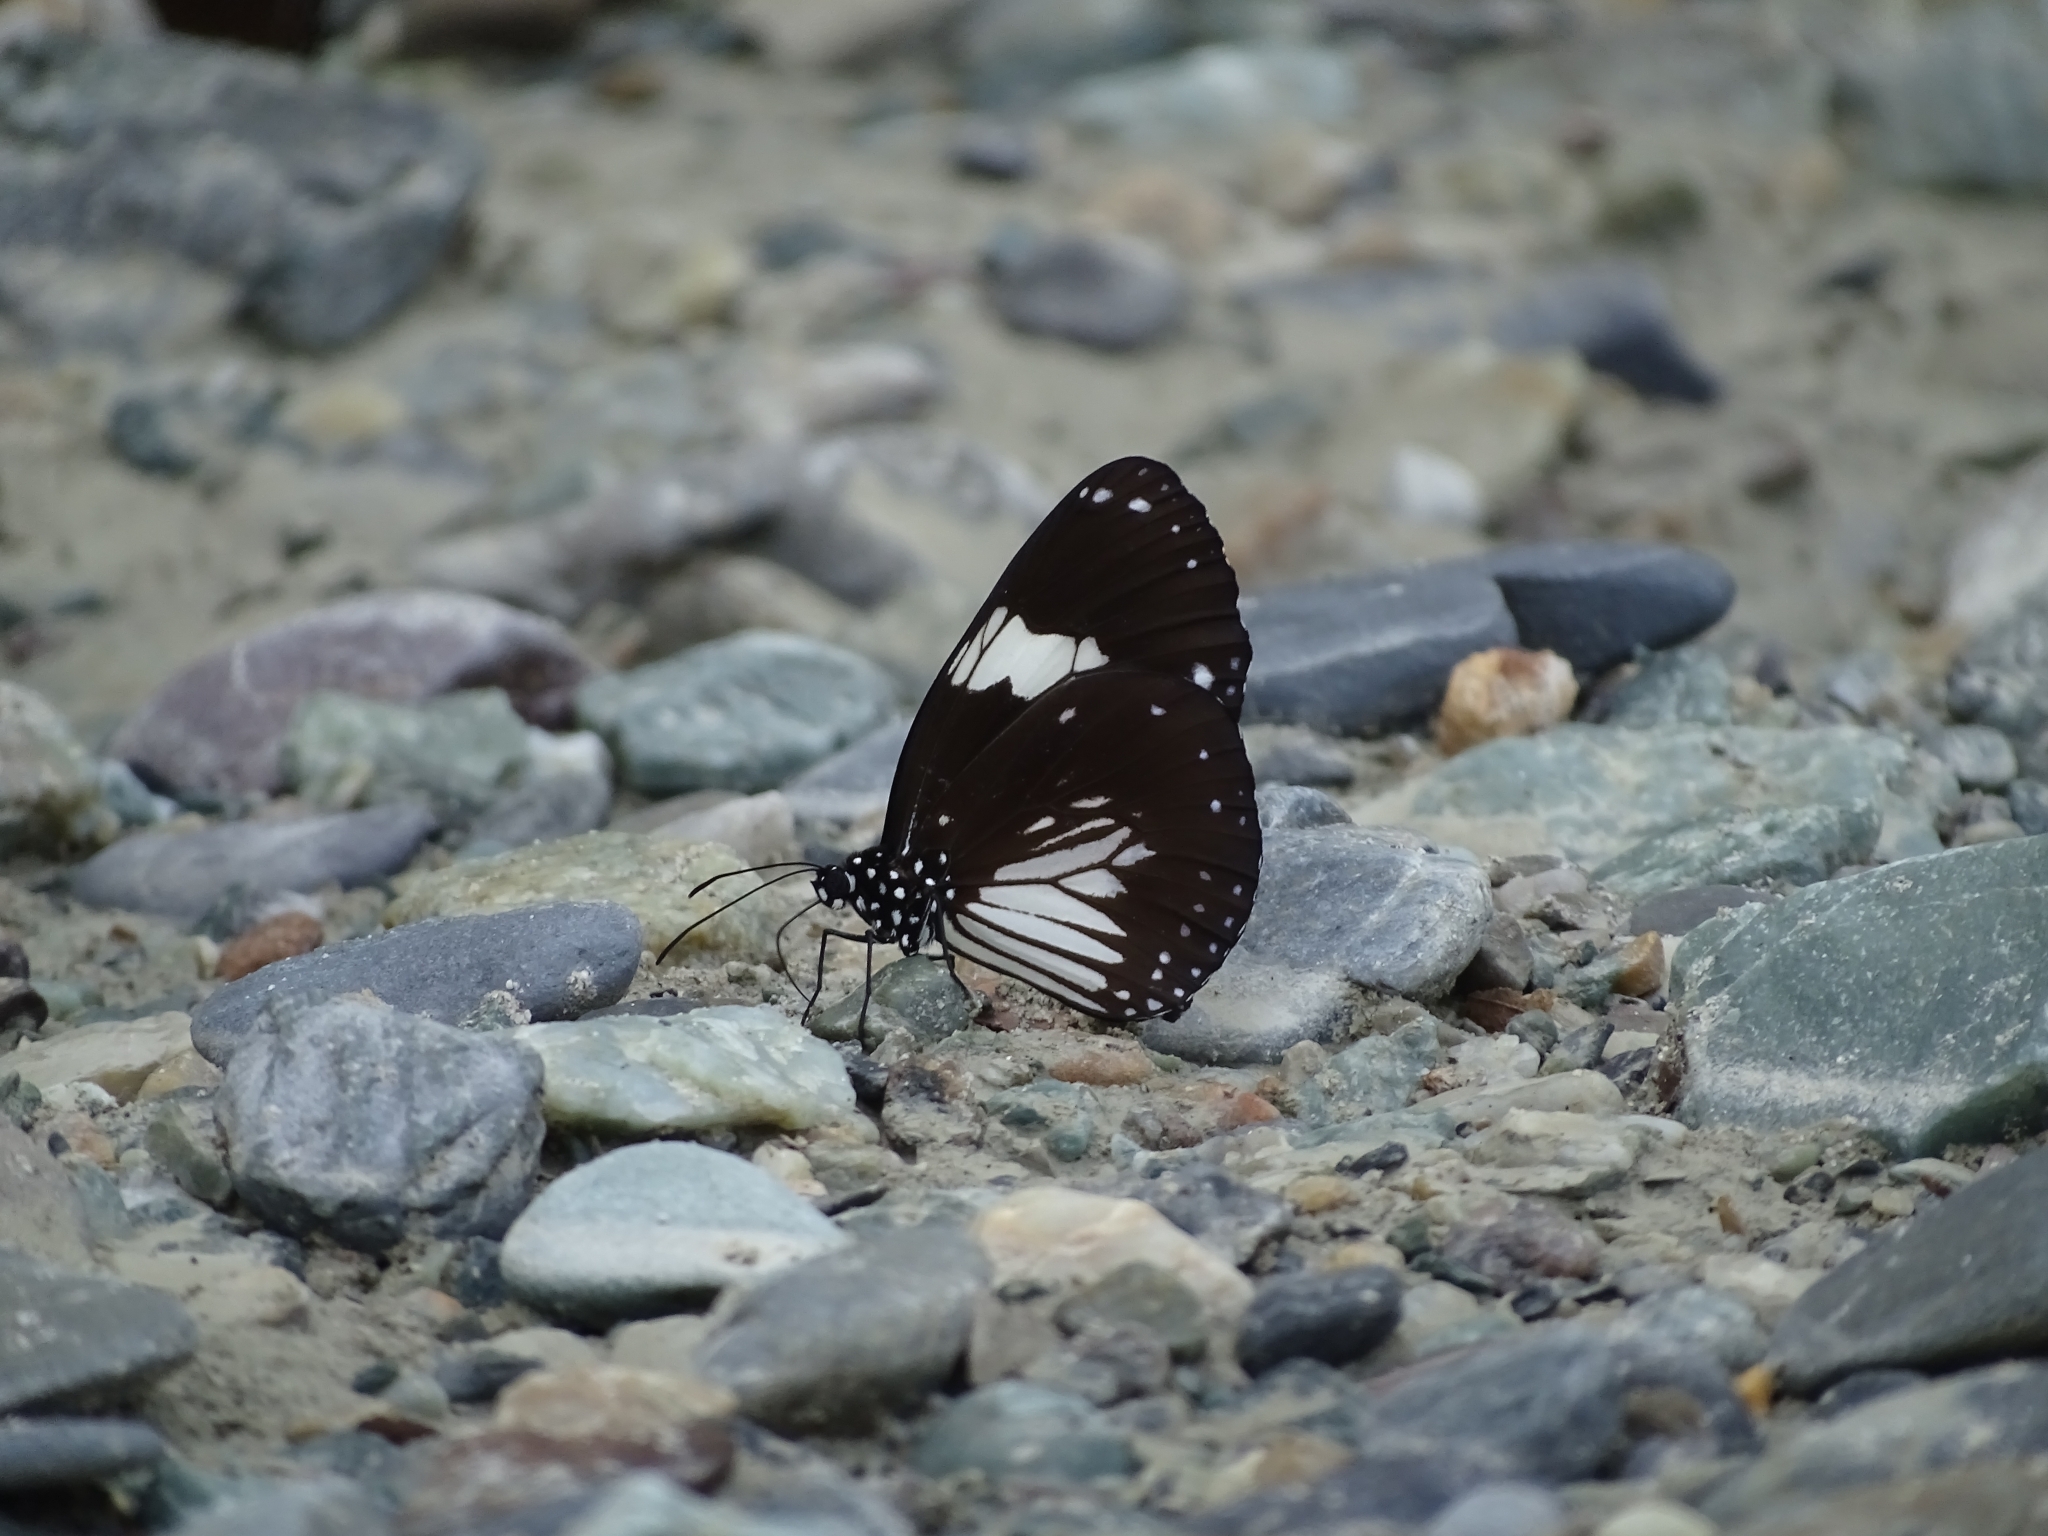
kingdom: Animalia
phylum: Arthropoda
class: Insecta
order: Lepidoptera
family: Nymphalidae
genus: Euploea
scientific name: Euploea radamanthus
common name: Magpie crow butterfly
